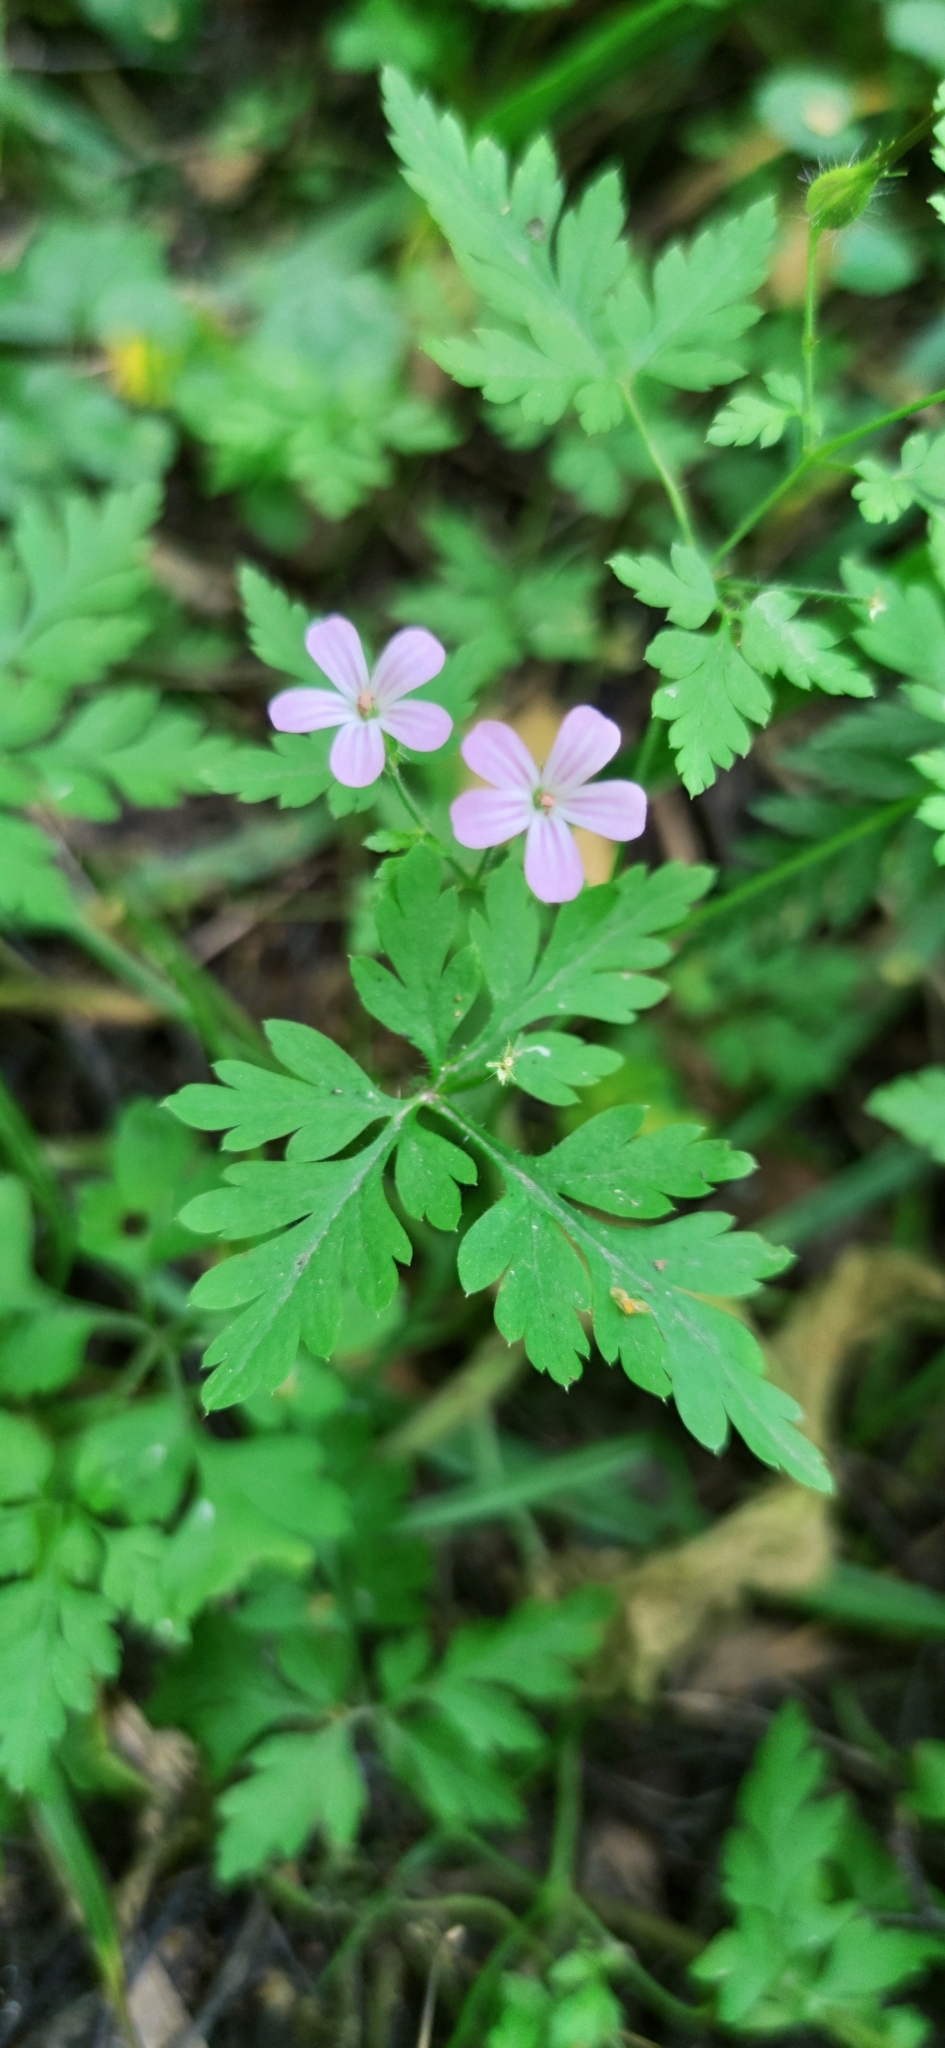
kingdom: Plantae
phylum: Tracheophyta
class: Magnoliopsida
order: Geraniales
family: Geraniaceae
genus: Geranium
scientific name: Geranium robertianum
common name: Herb-robert
